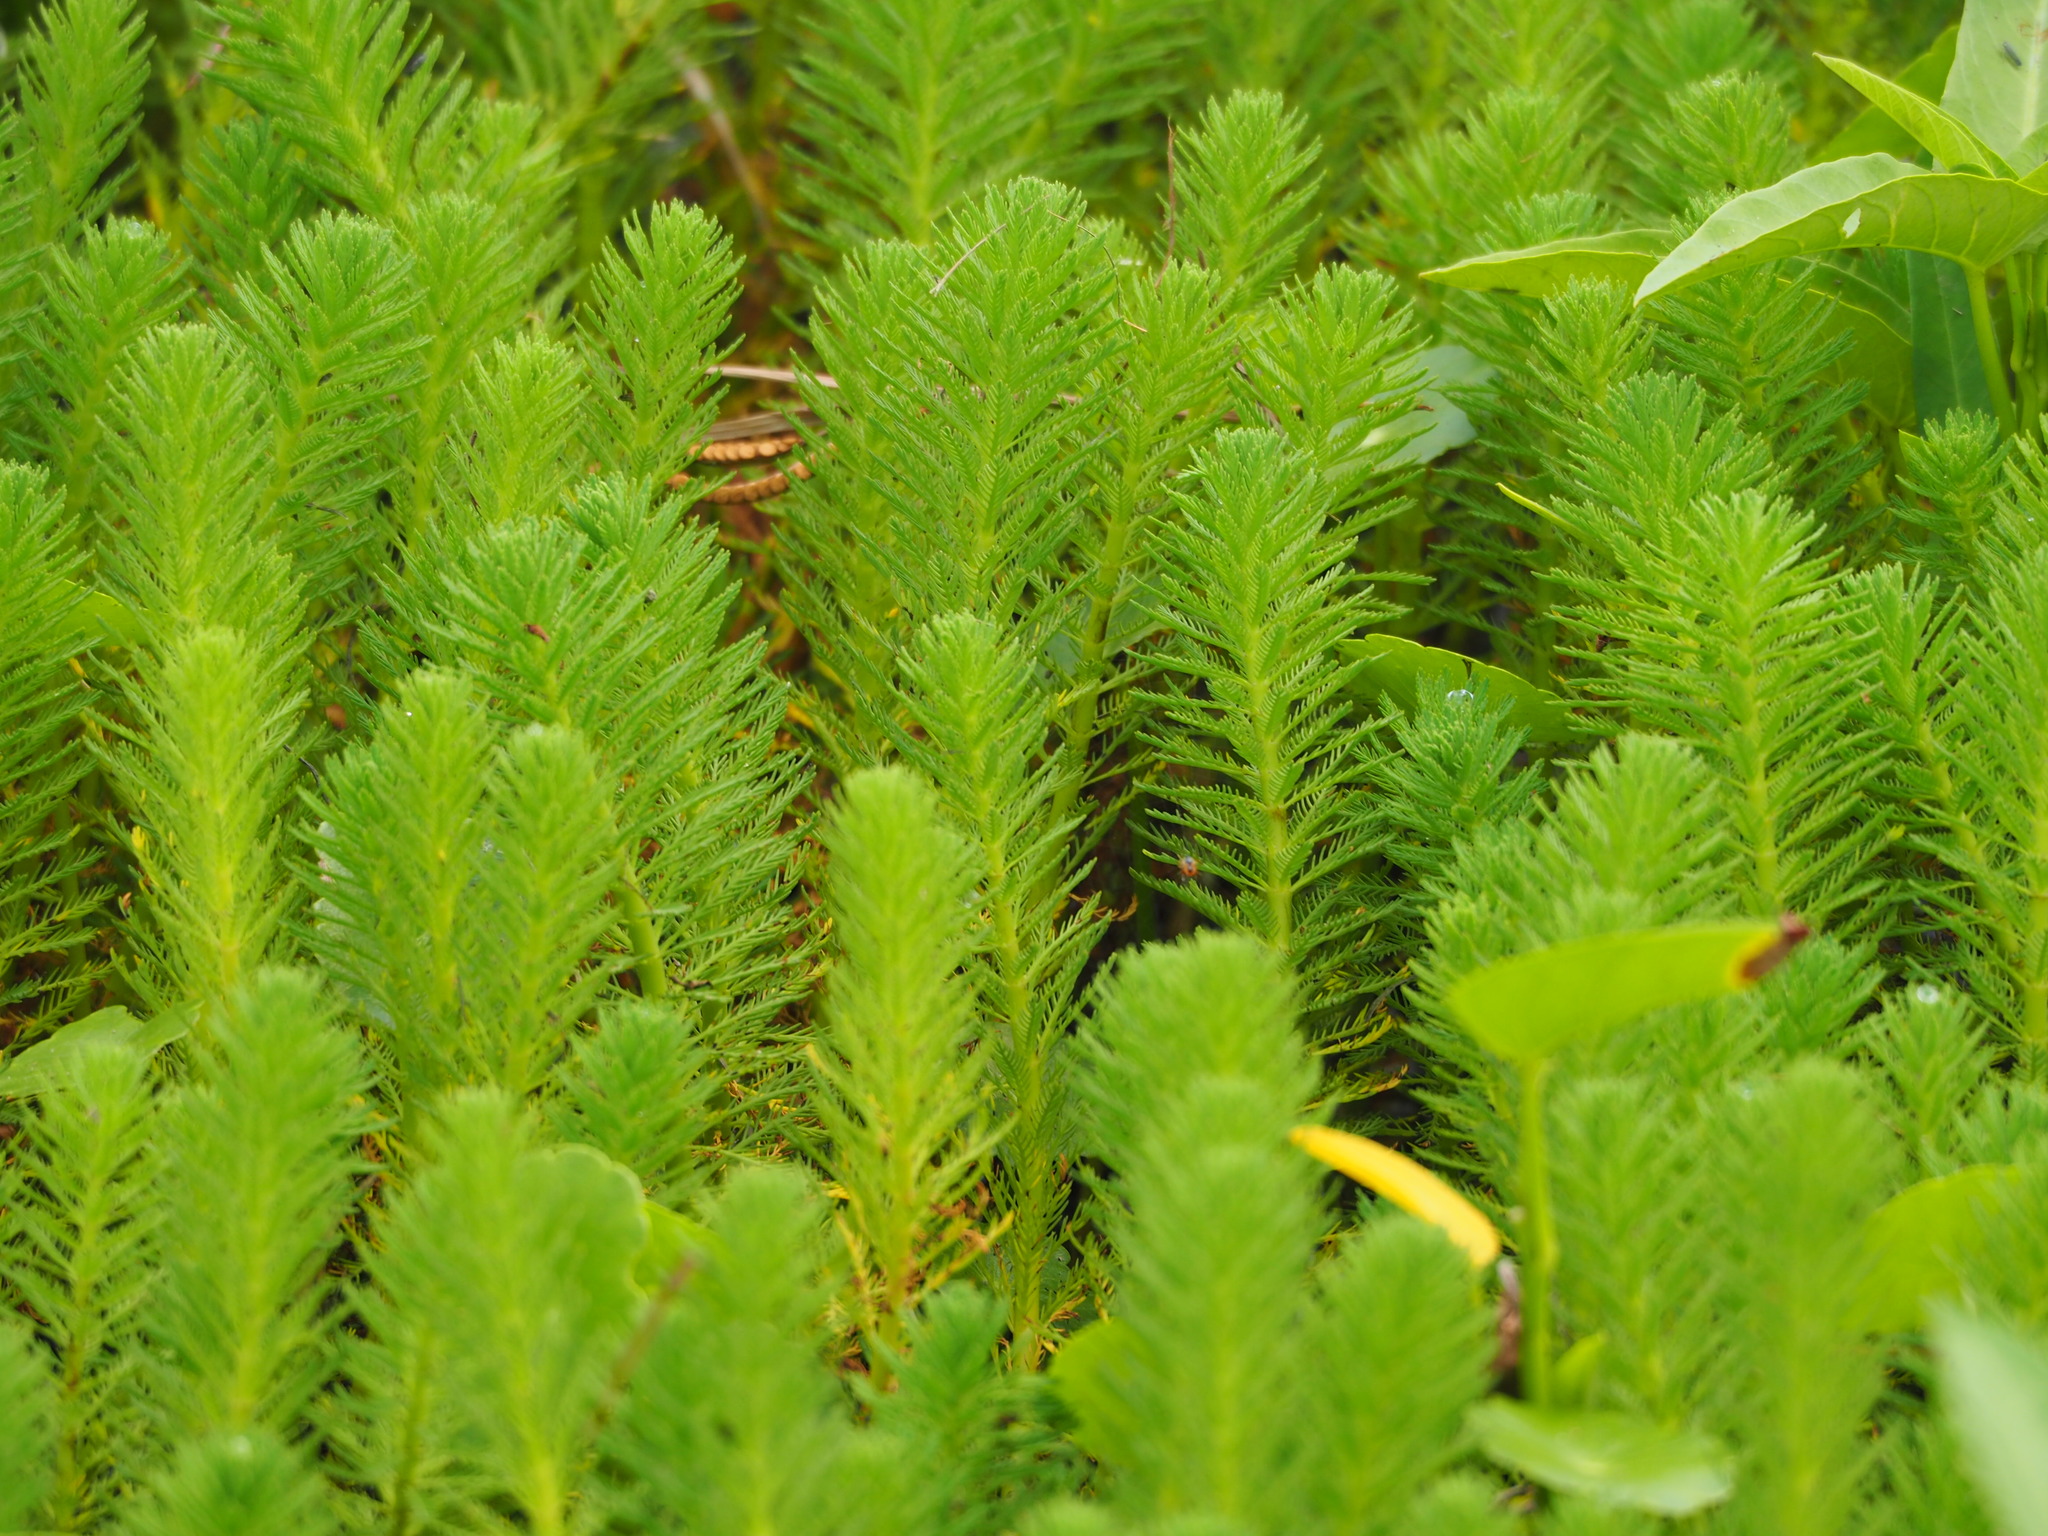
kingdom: Plantae
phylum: Tracheophyta
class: Magnoliopsida
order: Saxifragales
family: Haloragaceae
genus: Myriophyllum
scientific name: Myriophyllum aquaticum
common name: Parrot's feather
